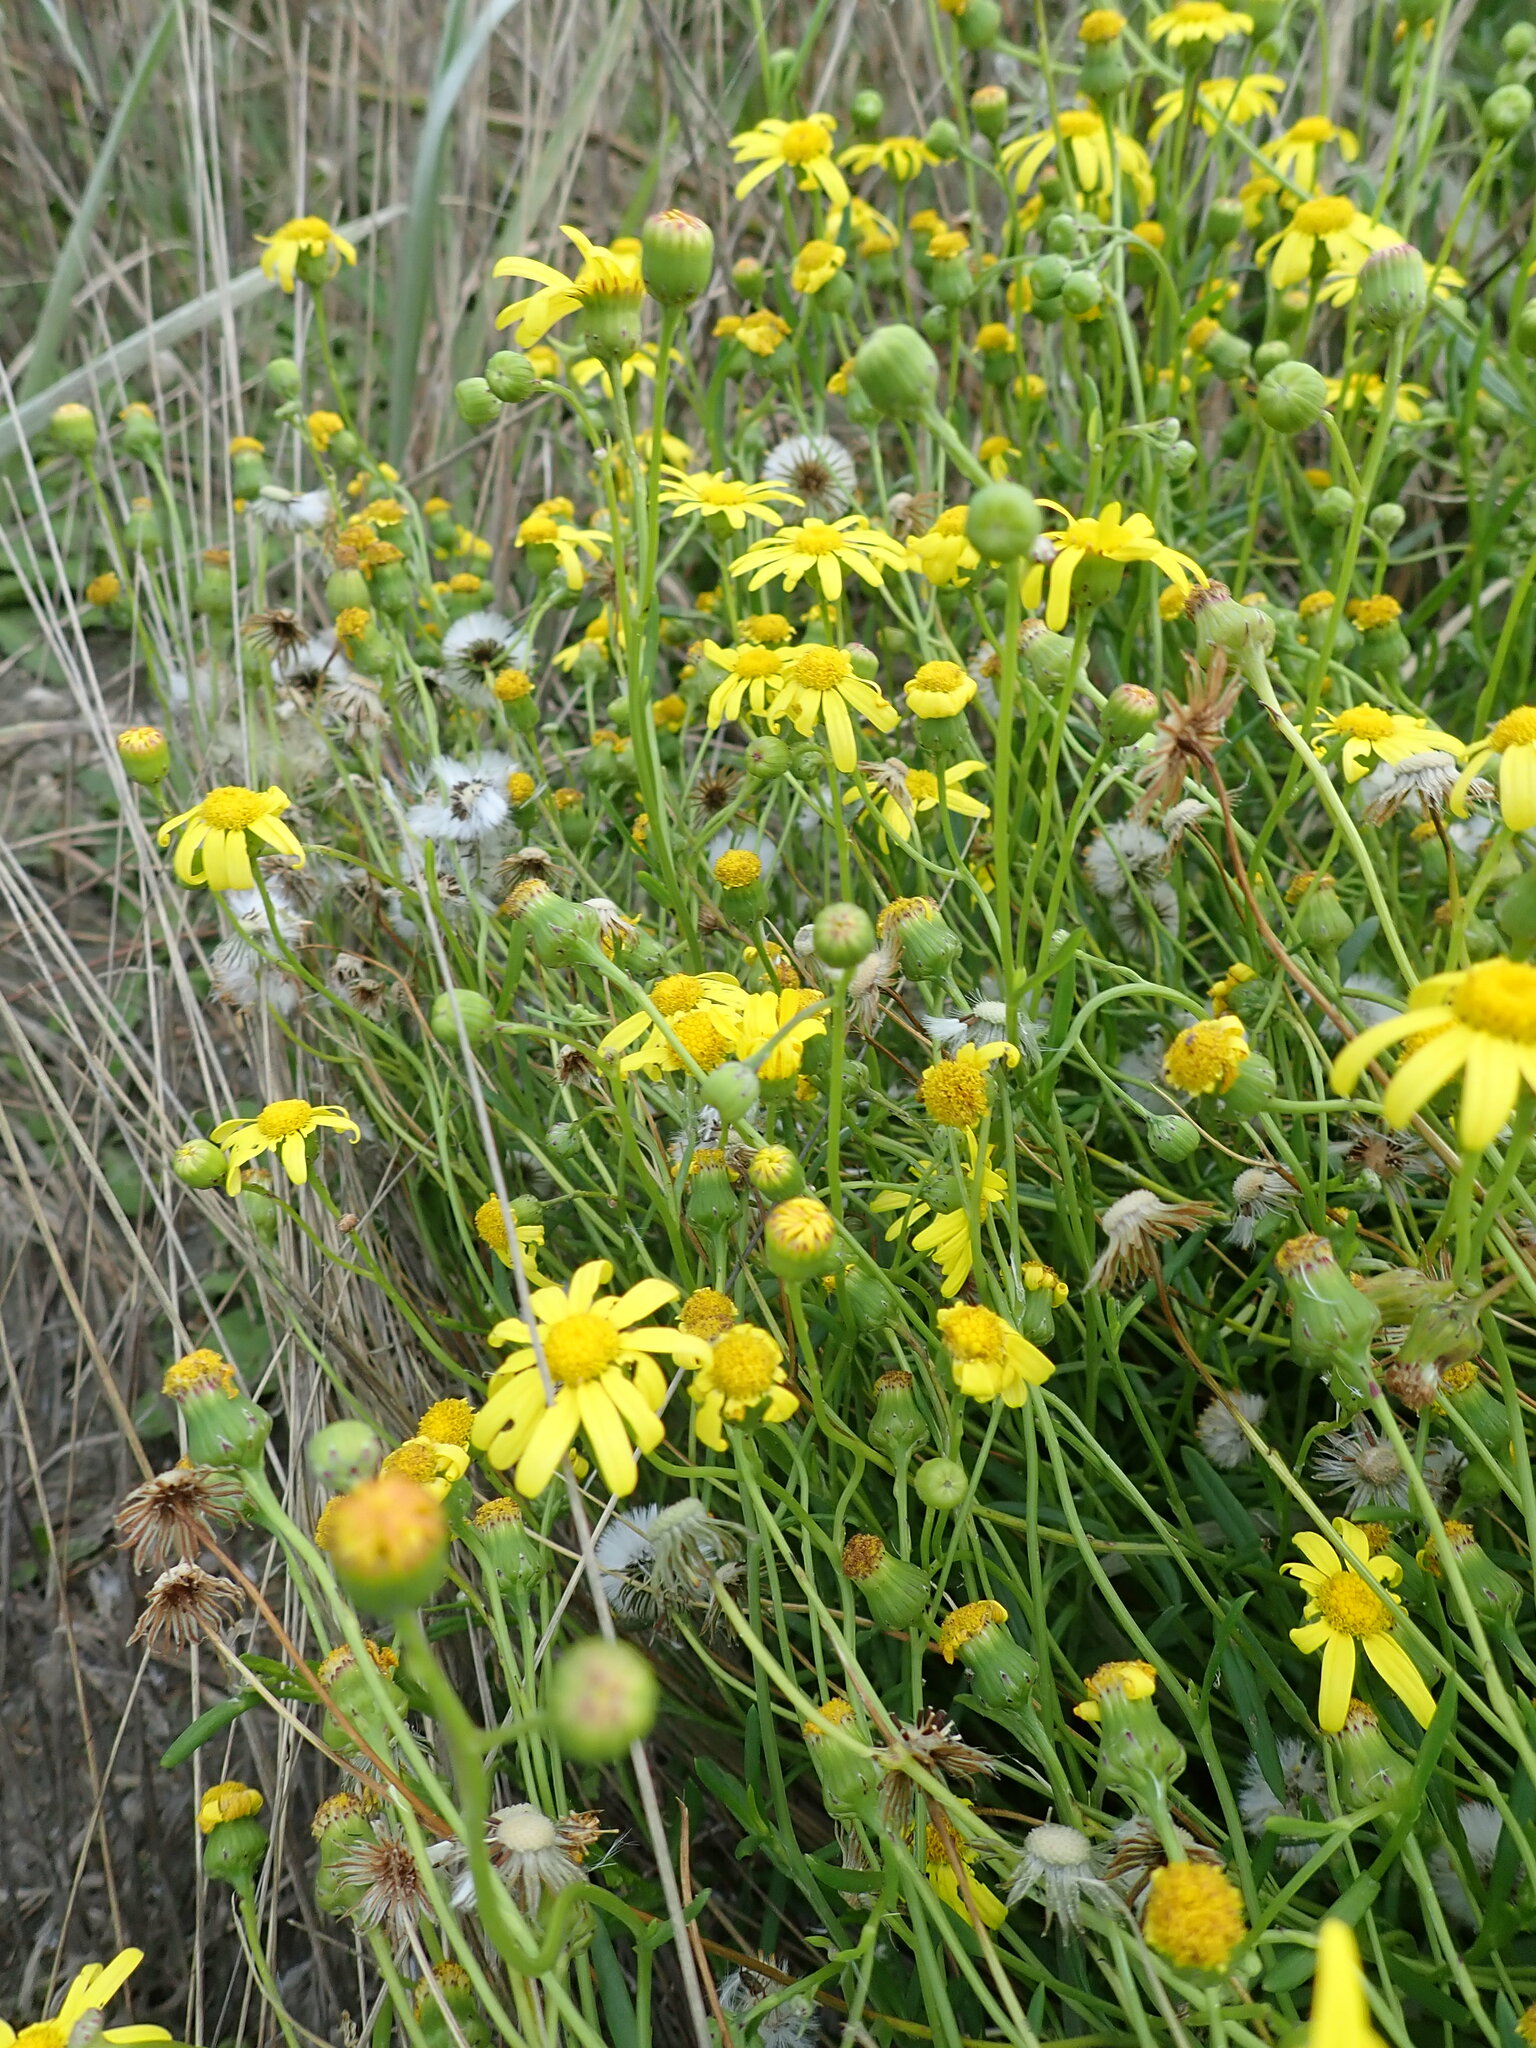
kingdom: Plantae
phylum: Tracheophyta
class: Magnoliopsida
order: Asterales
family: Asteraceae
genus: Senecio
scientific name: Senecio skirrhodon
